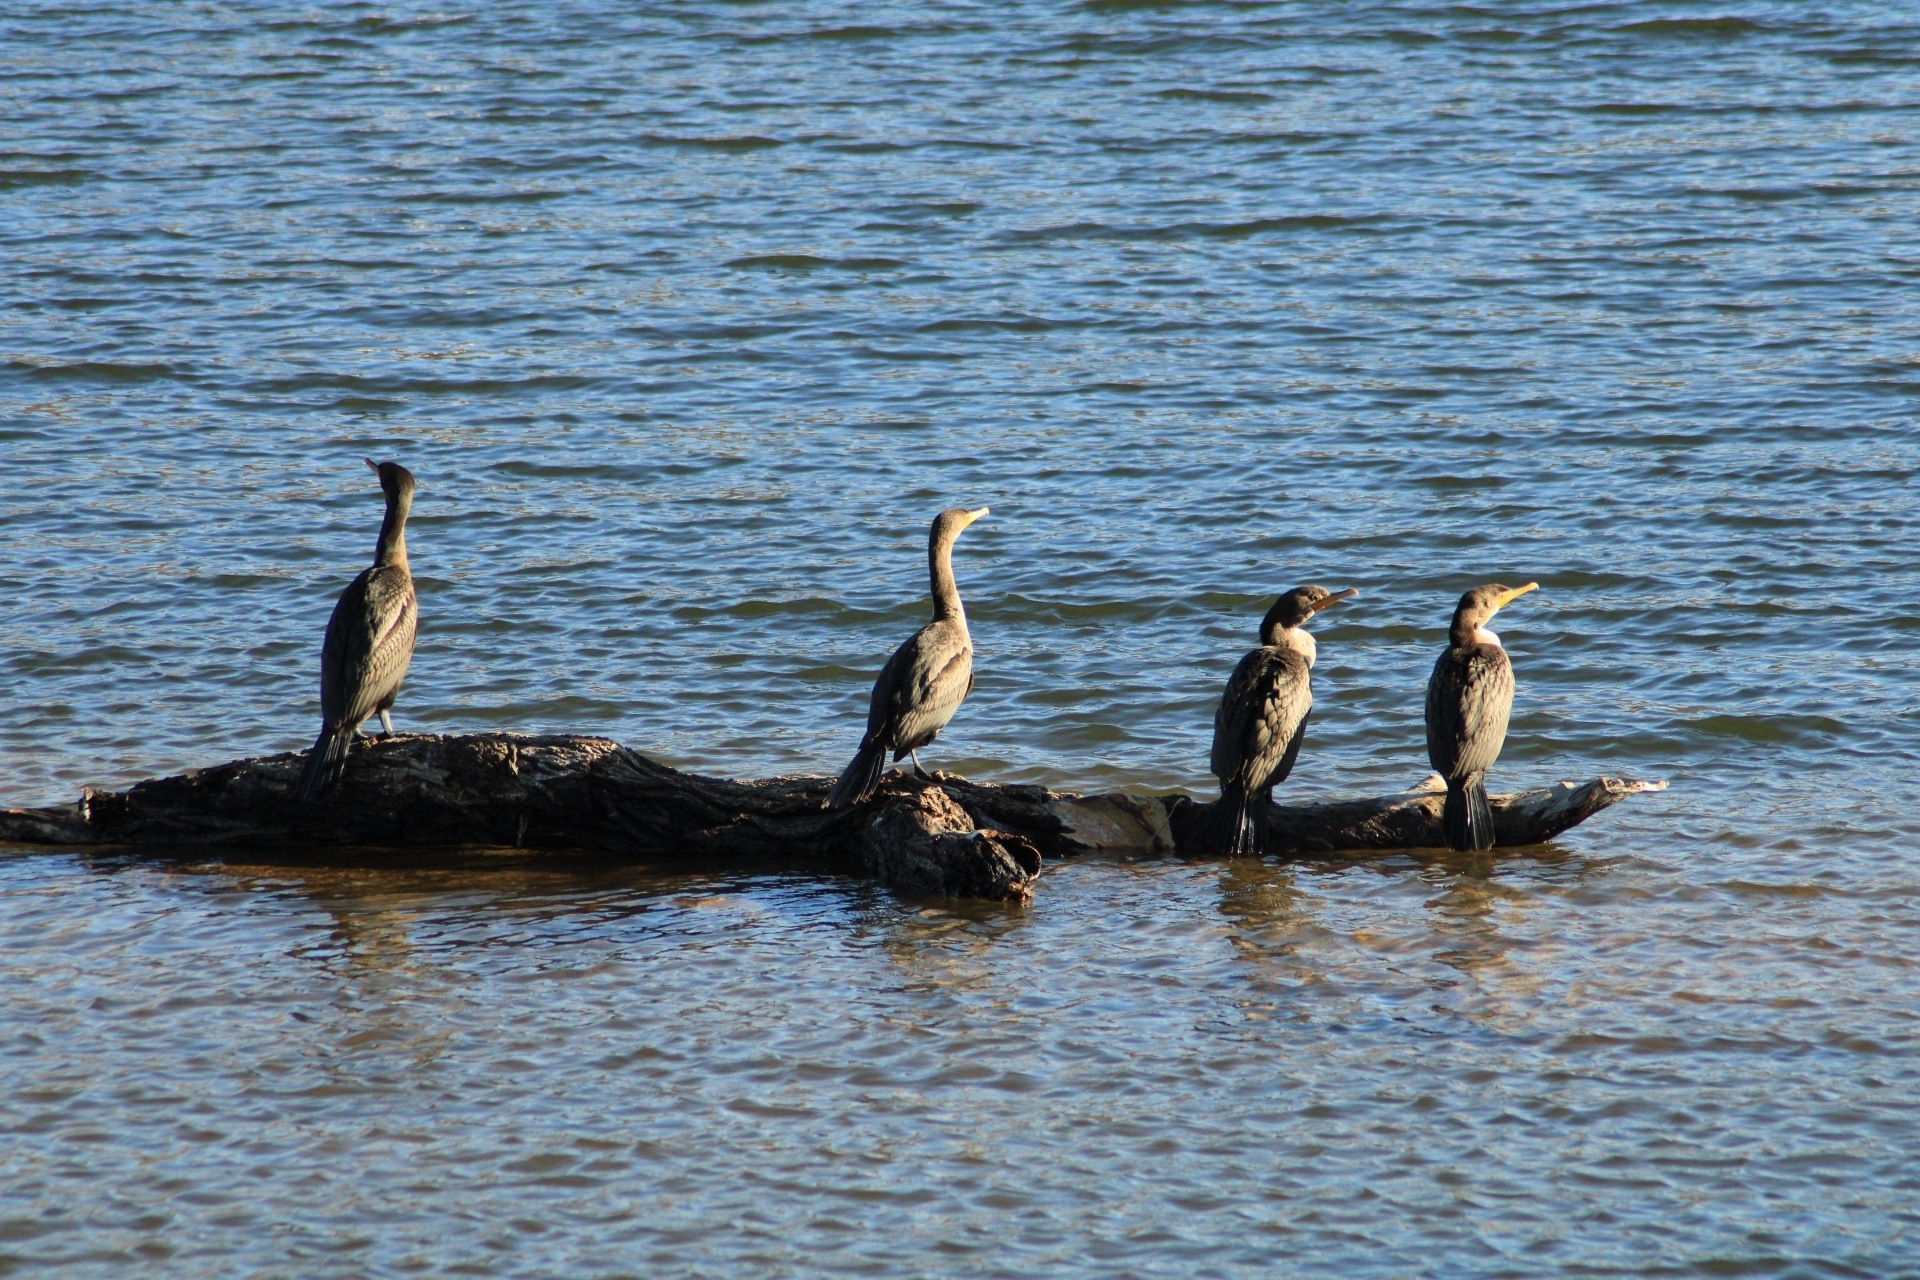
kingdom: Animalia
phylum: Chordata
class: Aves
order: Suliformes
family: Phalacrocoracidae
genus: Phalacrocorax
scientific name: Phalacrocorax auritus
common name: Double-crested cormorant
